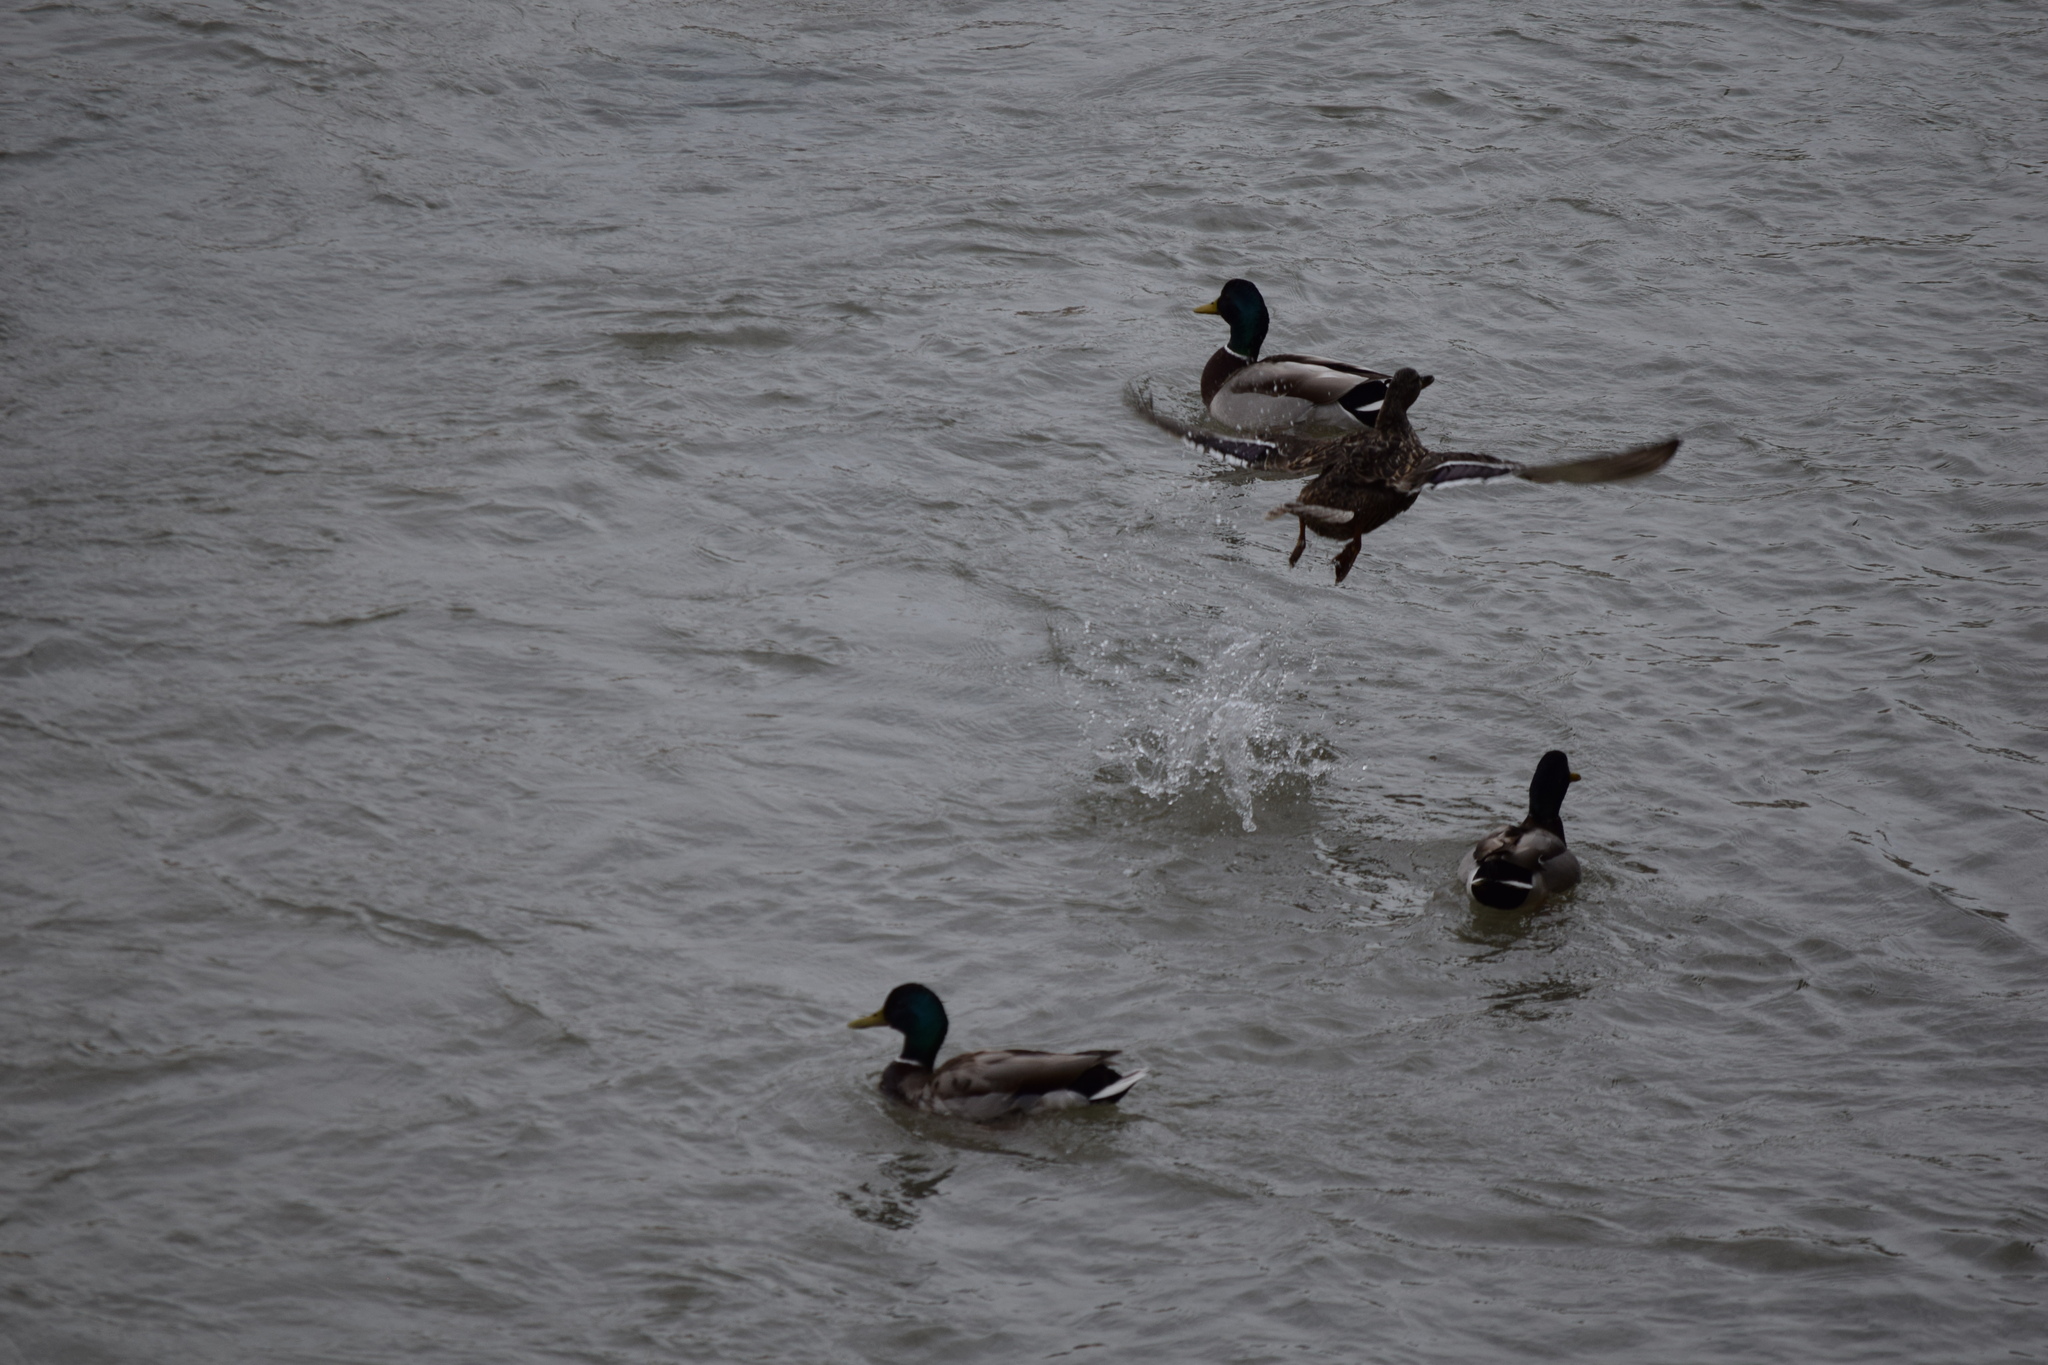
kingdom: Animalia
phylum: Chordata
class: Aves
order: Anseriformes
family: Anatidae
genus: Anas
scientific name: Anas platyrhynchos
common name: Mallard
